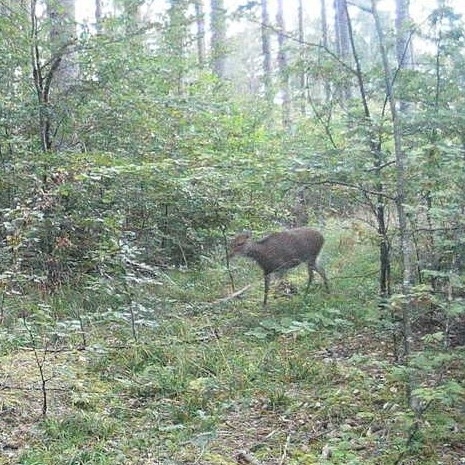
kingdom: Animalia
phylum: Chordata
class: Mammalia
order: Artiodactyla
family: Cervidae
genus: Capreolus
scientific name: Capreolus capreolus
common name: Western roe deer
